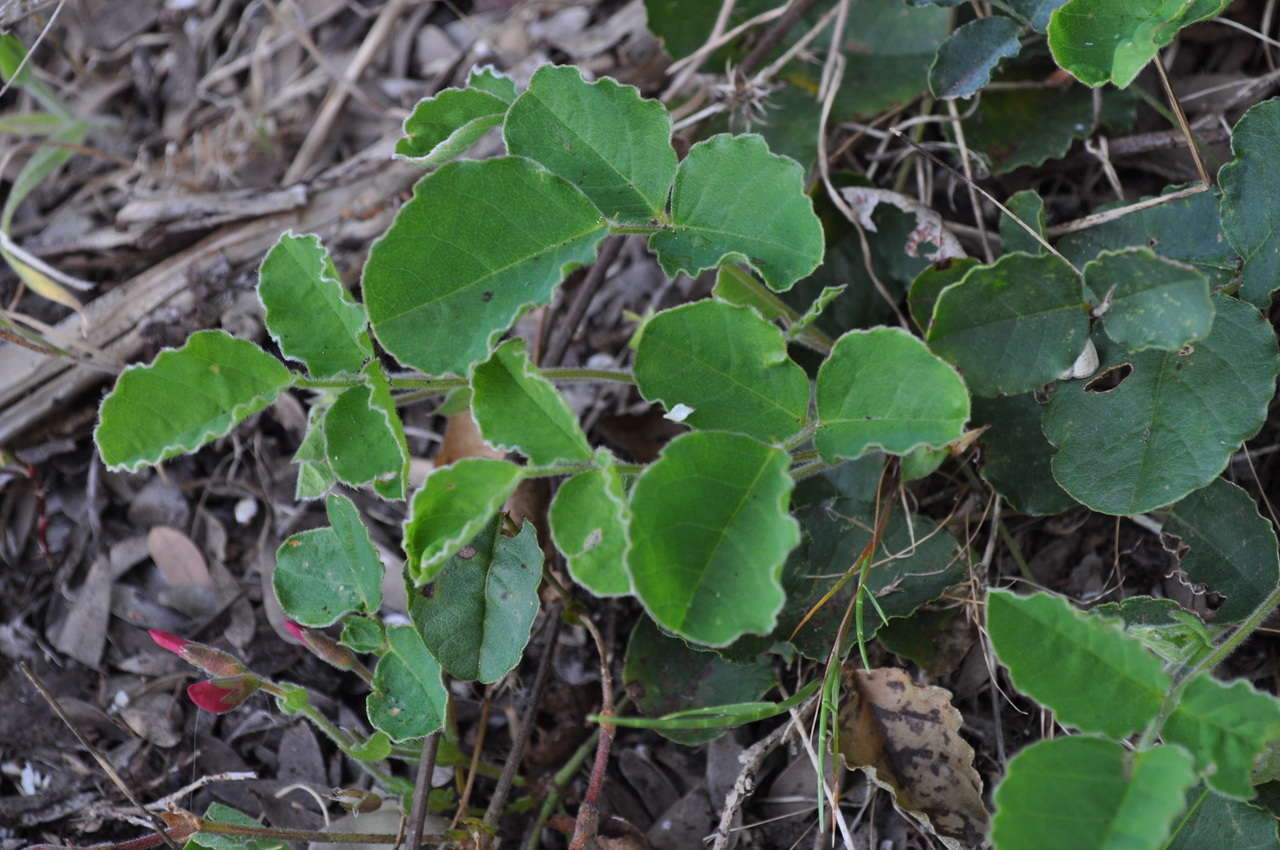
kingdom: Plantae
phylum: Tracheophyta
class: Magnoliopsida
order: Fabales
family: Fabaceae
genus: Kennedia
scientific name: Kennedia prostrata
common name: Running-postman
